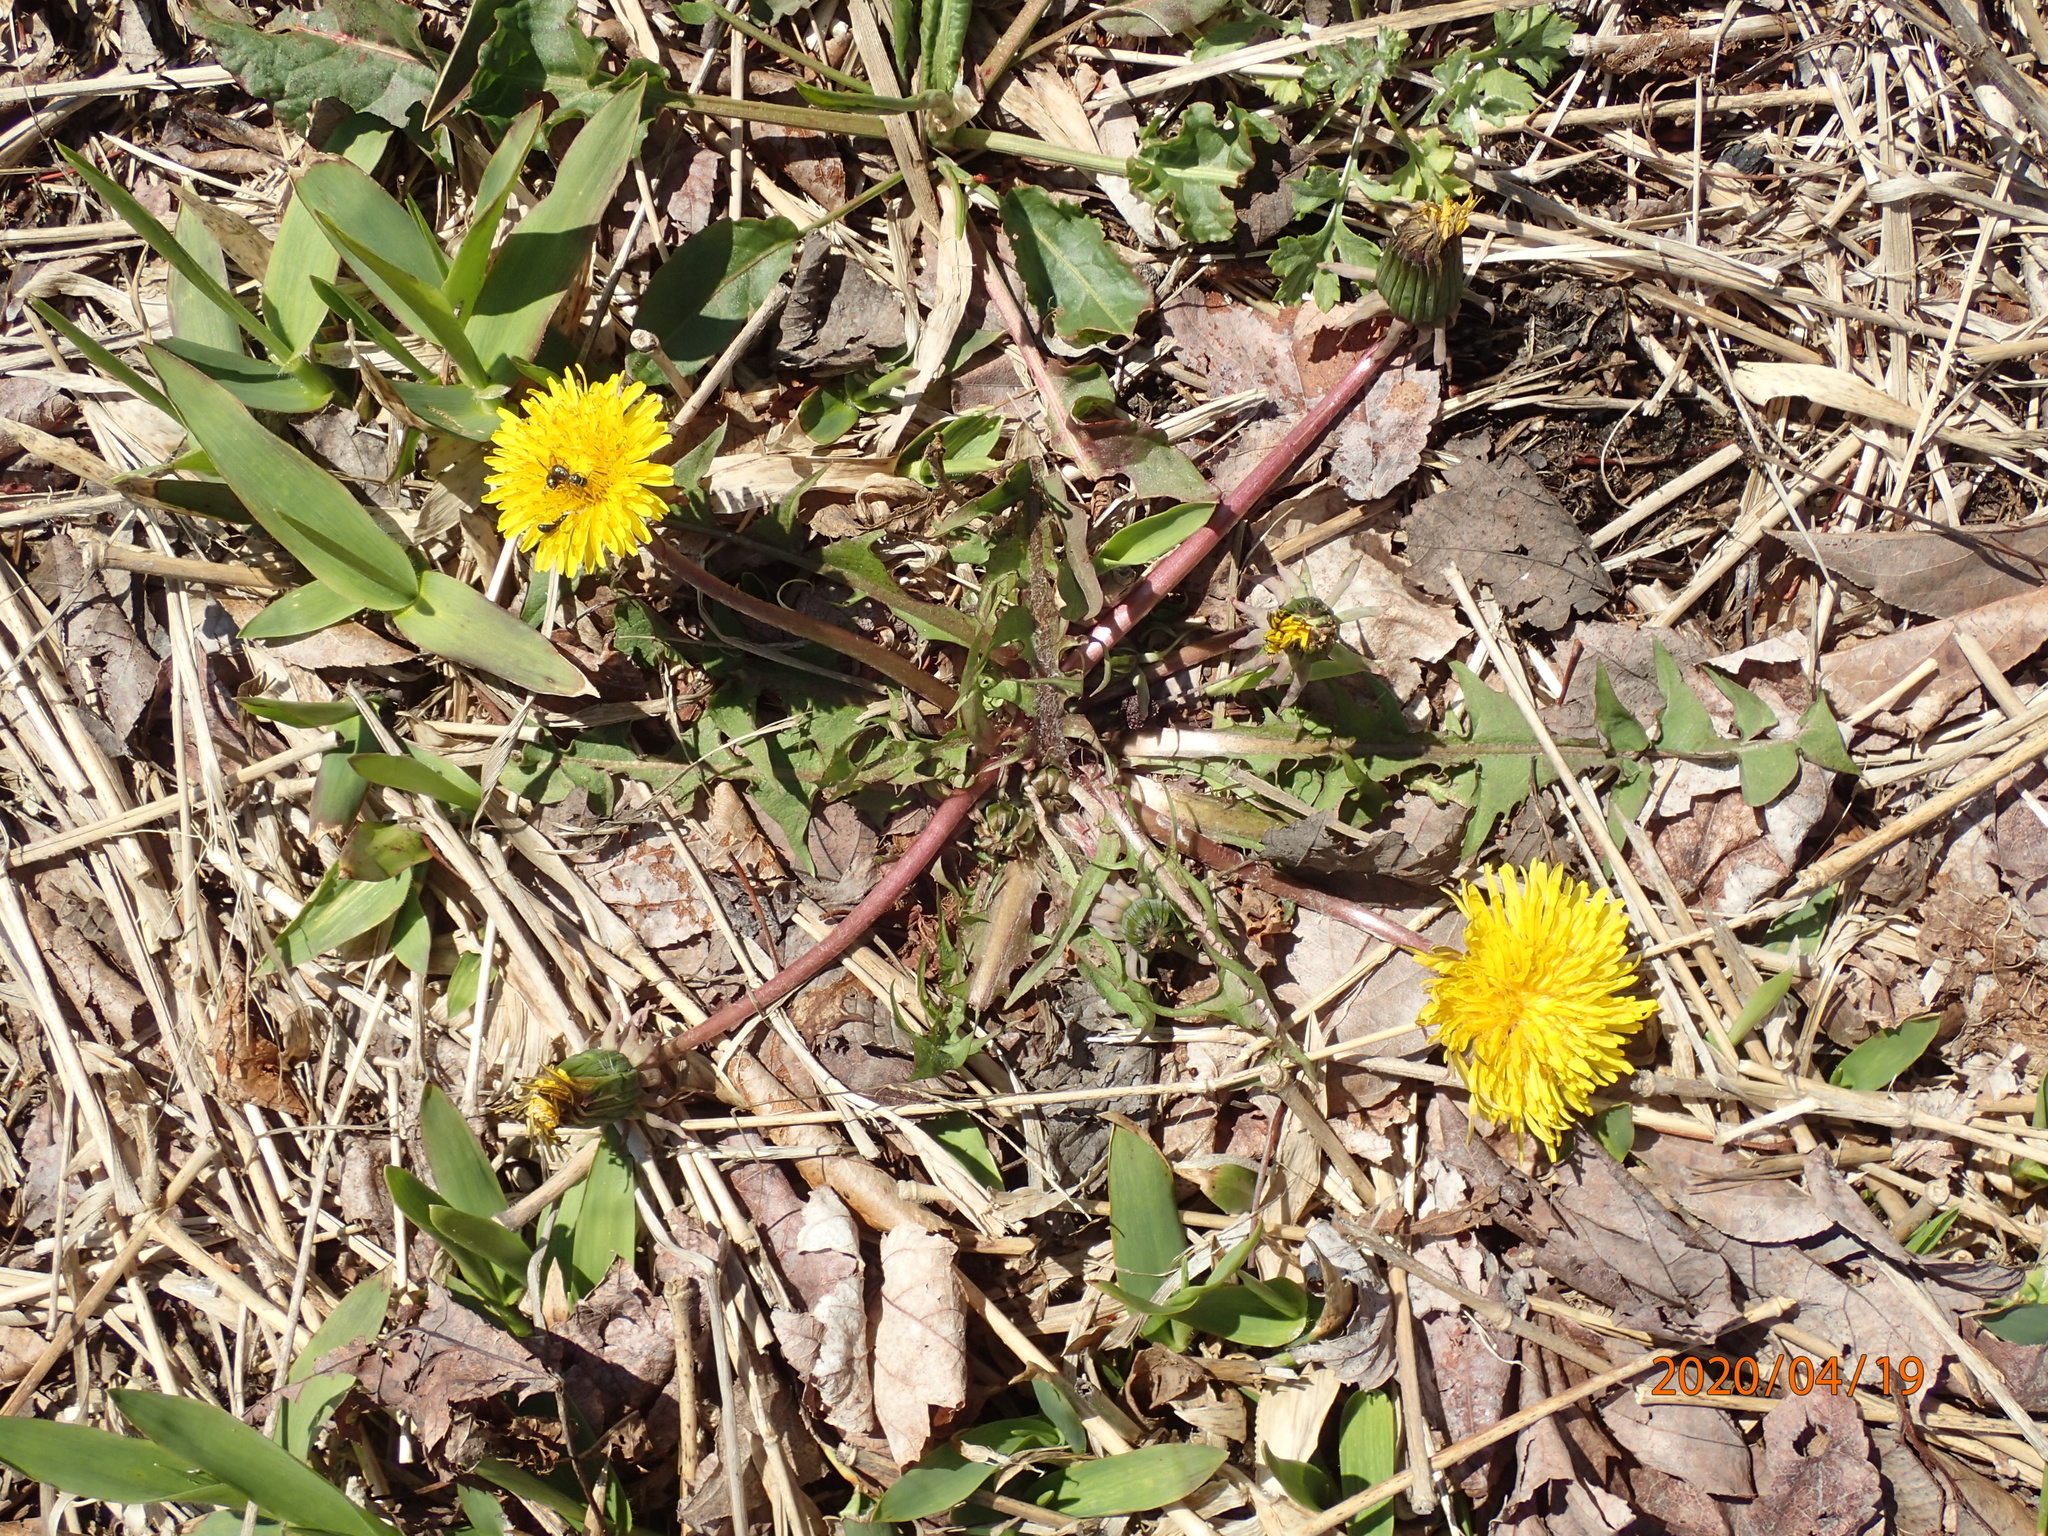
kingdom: Plantae
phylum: Tracheophyta
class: Magnoliopsida
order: Asterales
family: Asteraceae
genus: Taraxacum
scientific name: Taraxacum officinale
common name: Common dandelion
